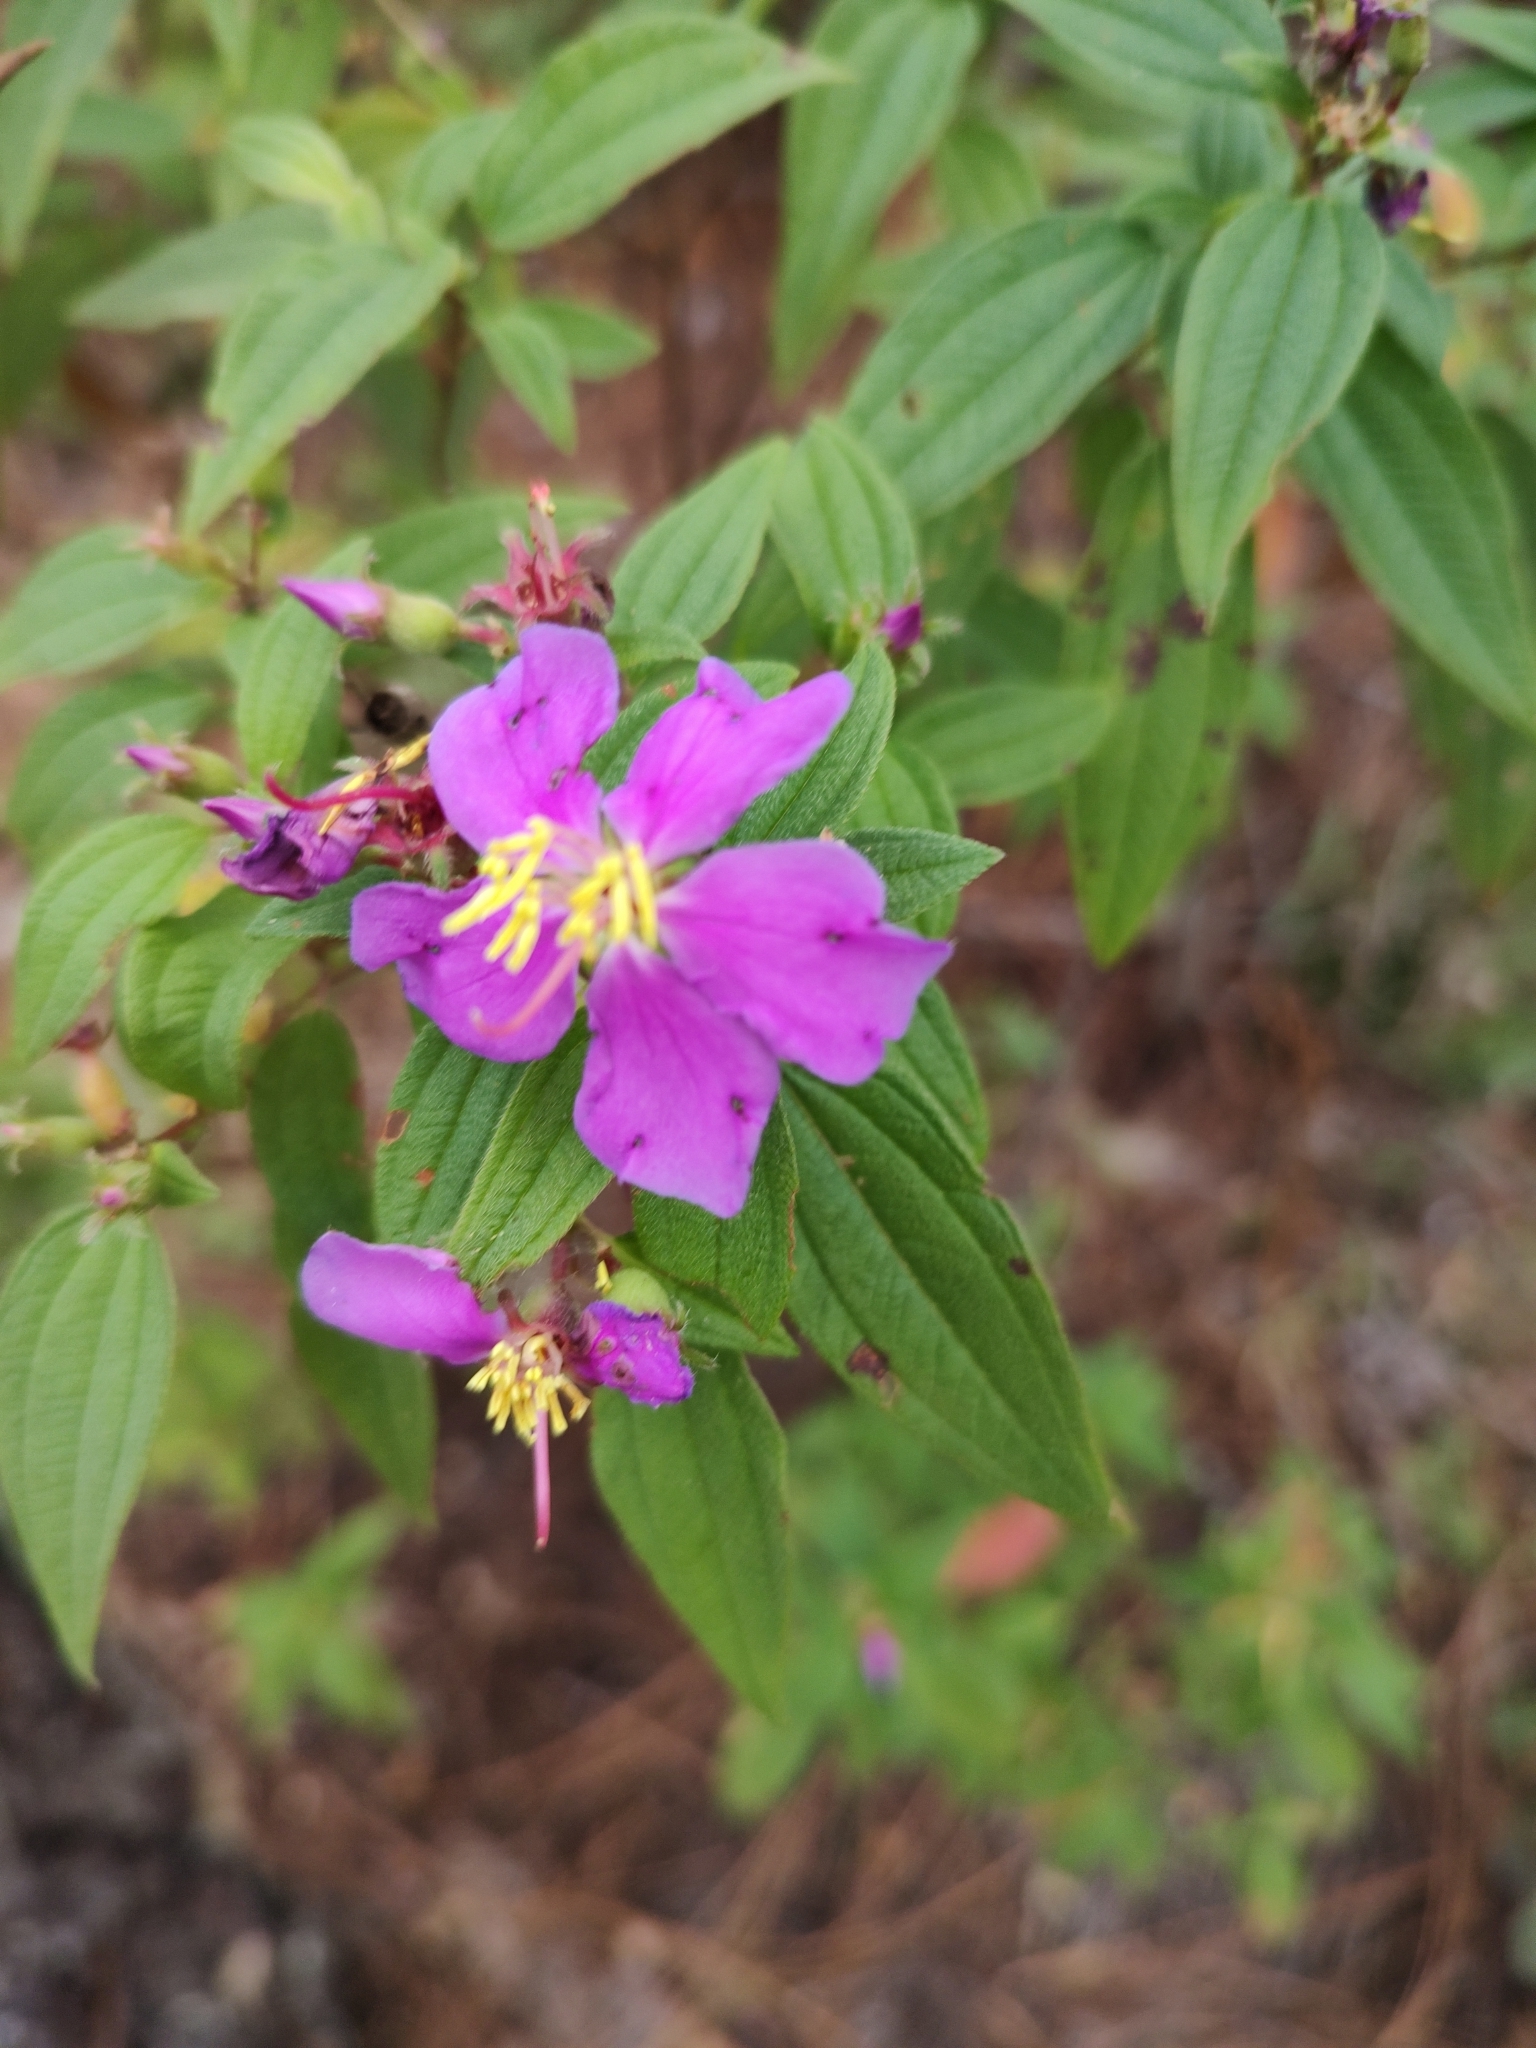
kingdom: Plantae
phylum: Tracheophyta
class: Magnoliopsida
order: Myrtales
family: Melastomataceae
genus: Chaetogastra
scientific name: Chaetogastra scabriuscula
